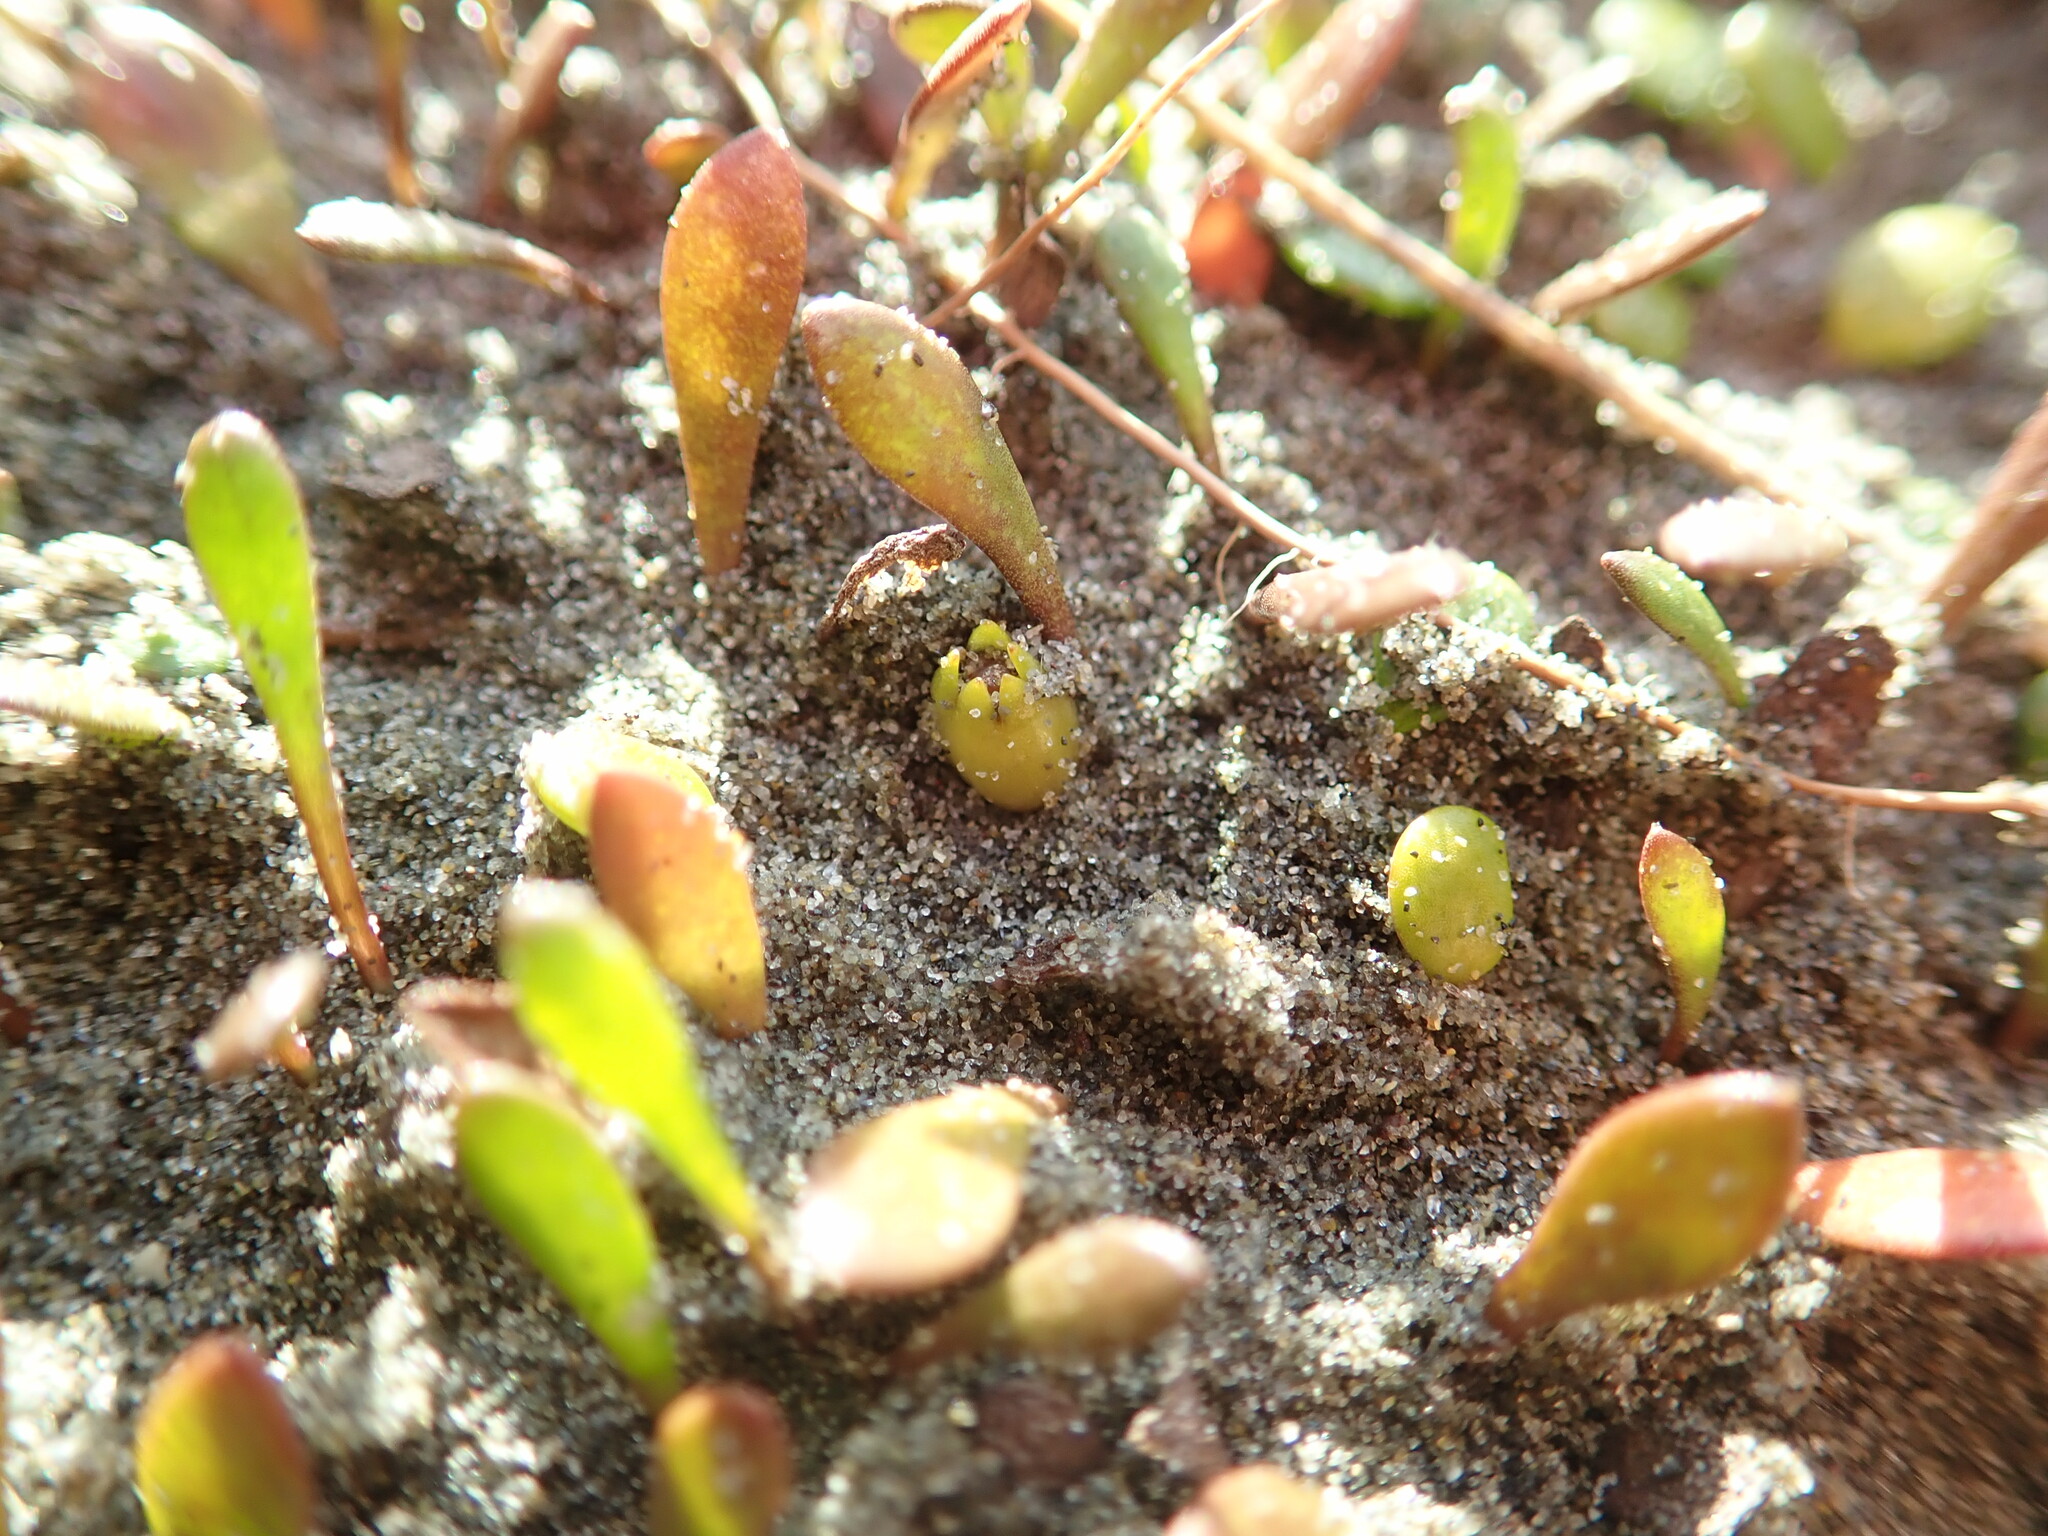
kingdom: Plantae
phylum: Tracheophyta
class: Magnoliopsida
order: Asterales
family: Goodeniaceae
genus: Goodenia
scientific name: Goodenia radicans
